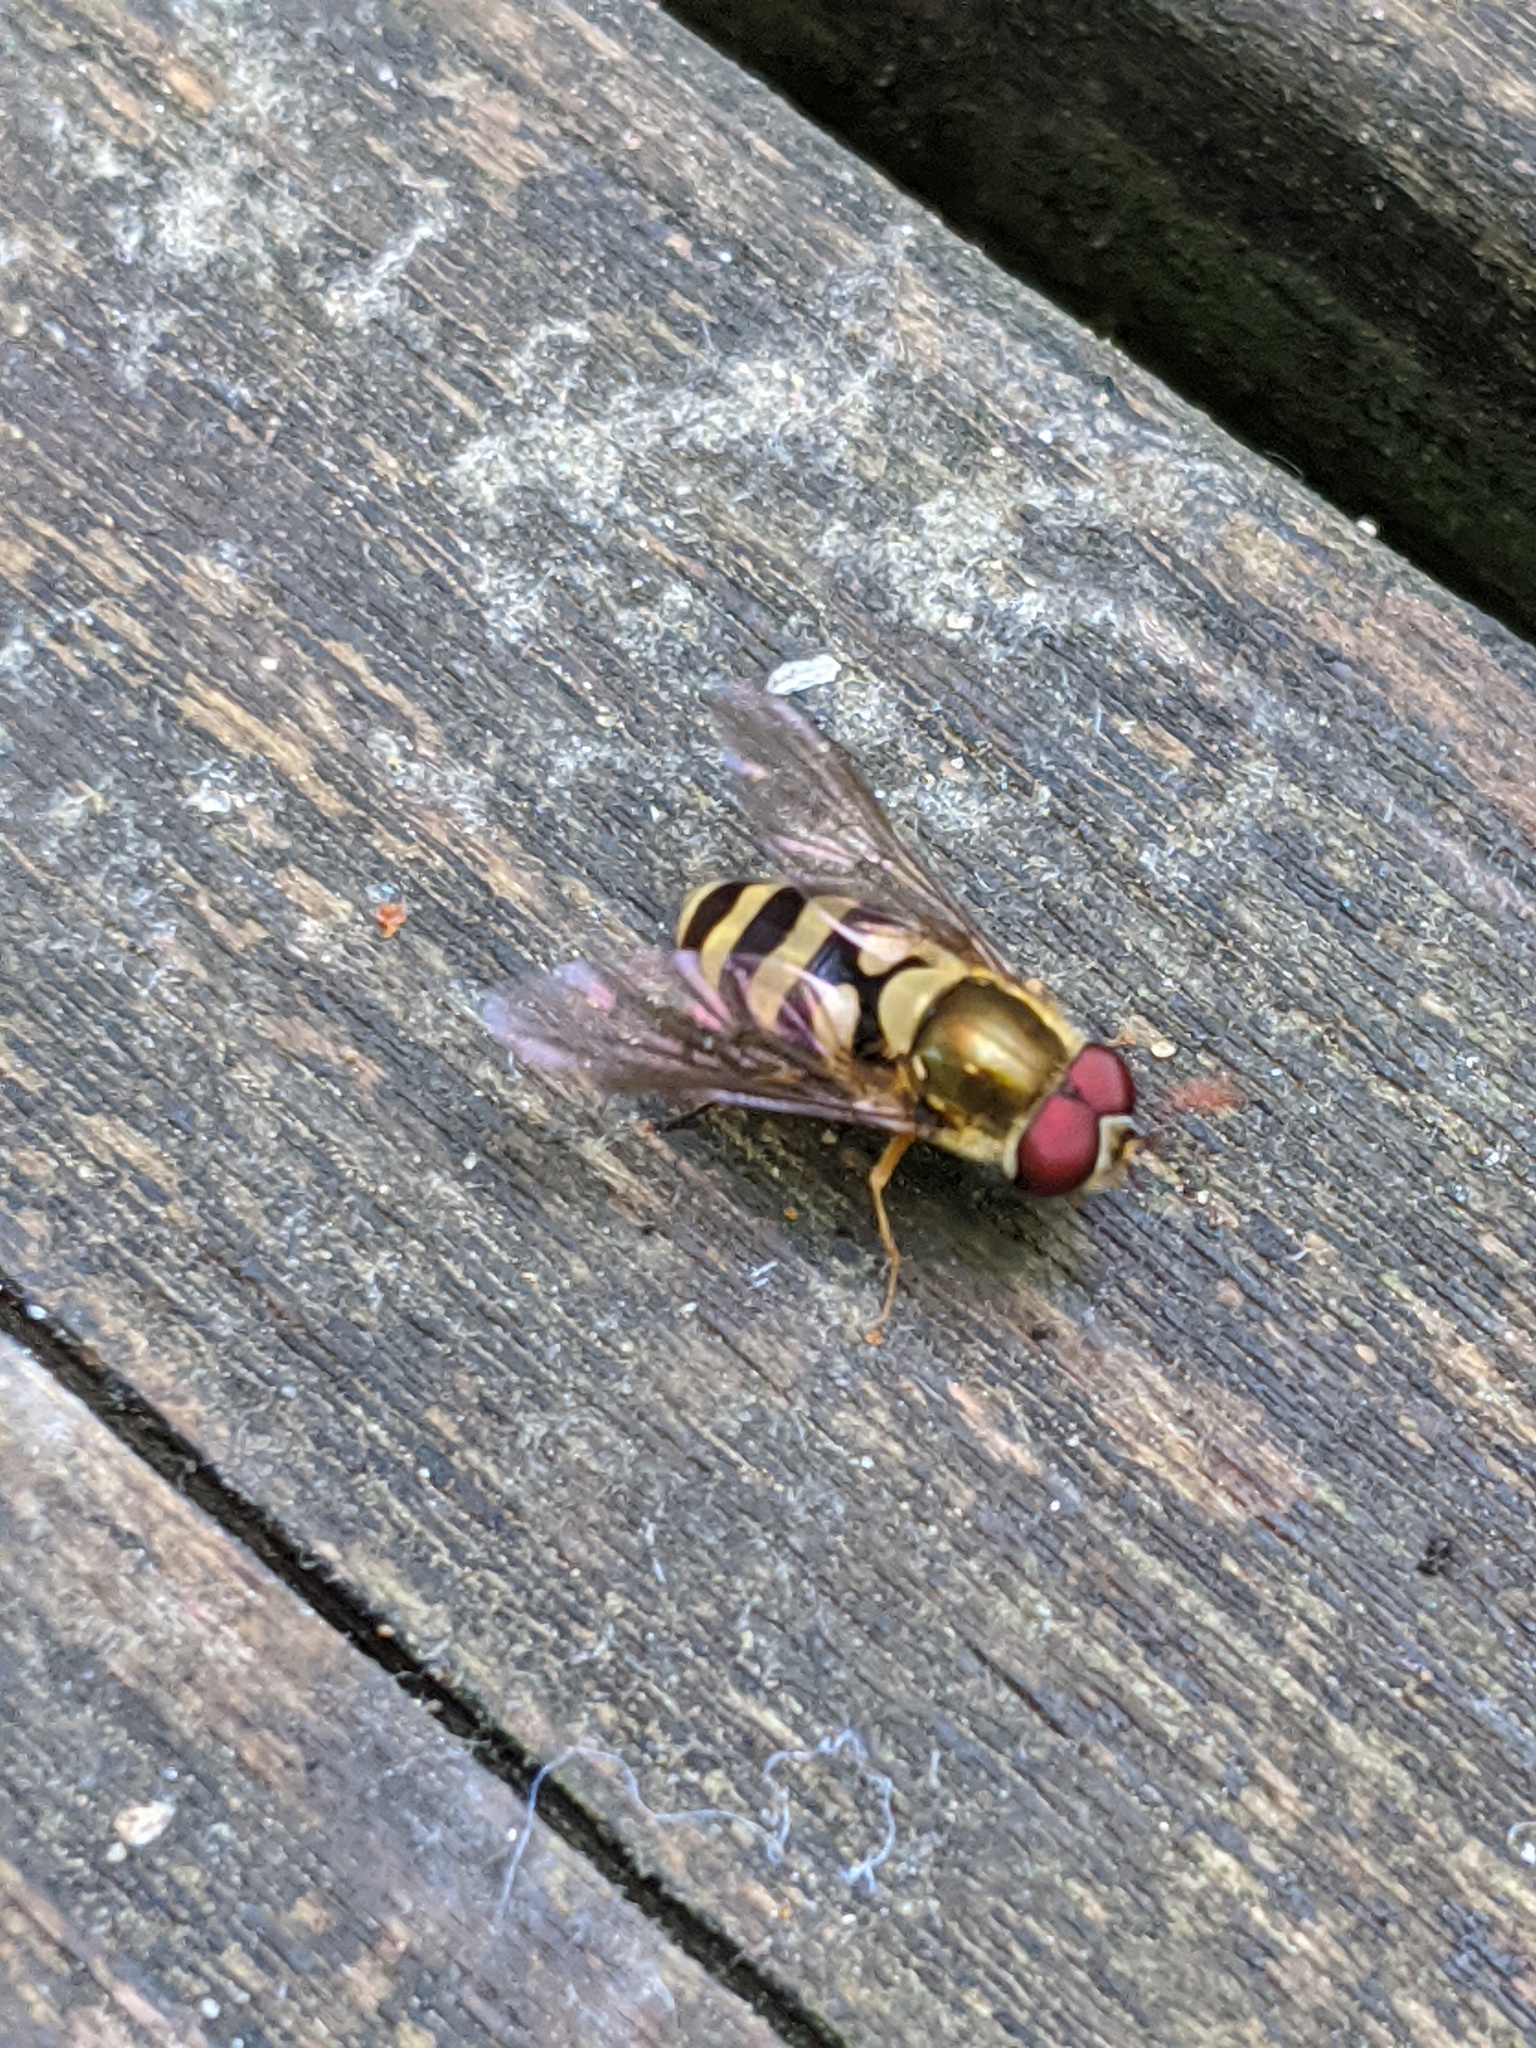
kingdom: Animalia
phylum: Arthropoda
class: Insecta
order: Diptera
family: Syrphidae
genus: Syrphus
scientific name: Syrphus
